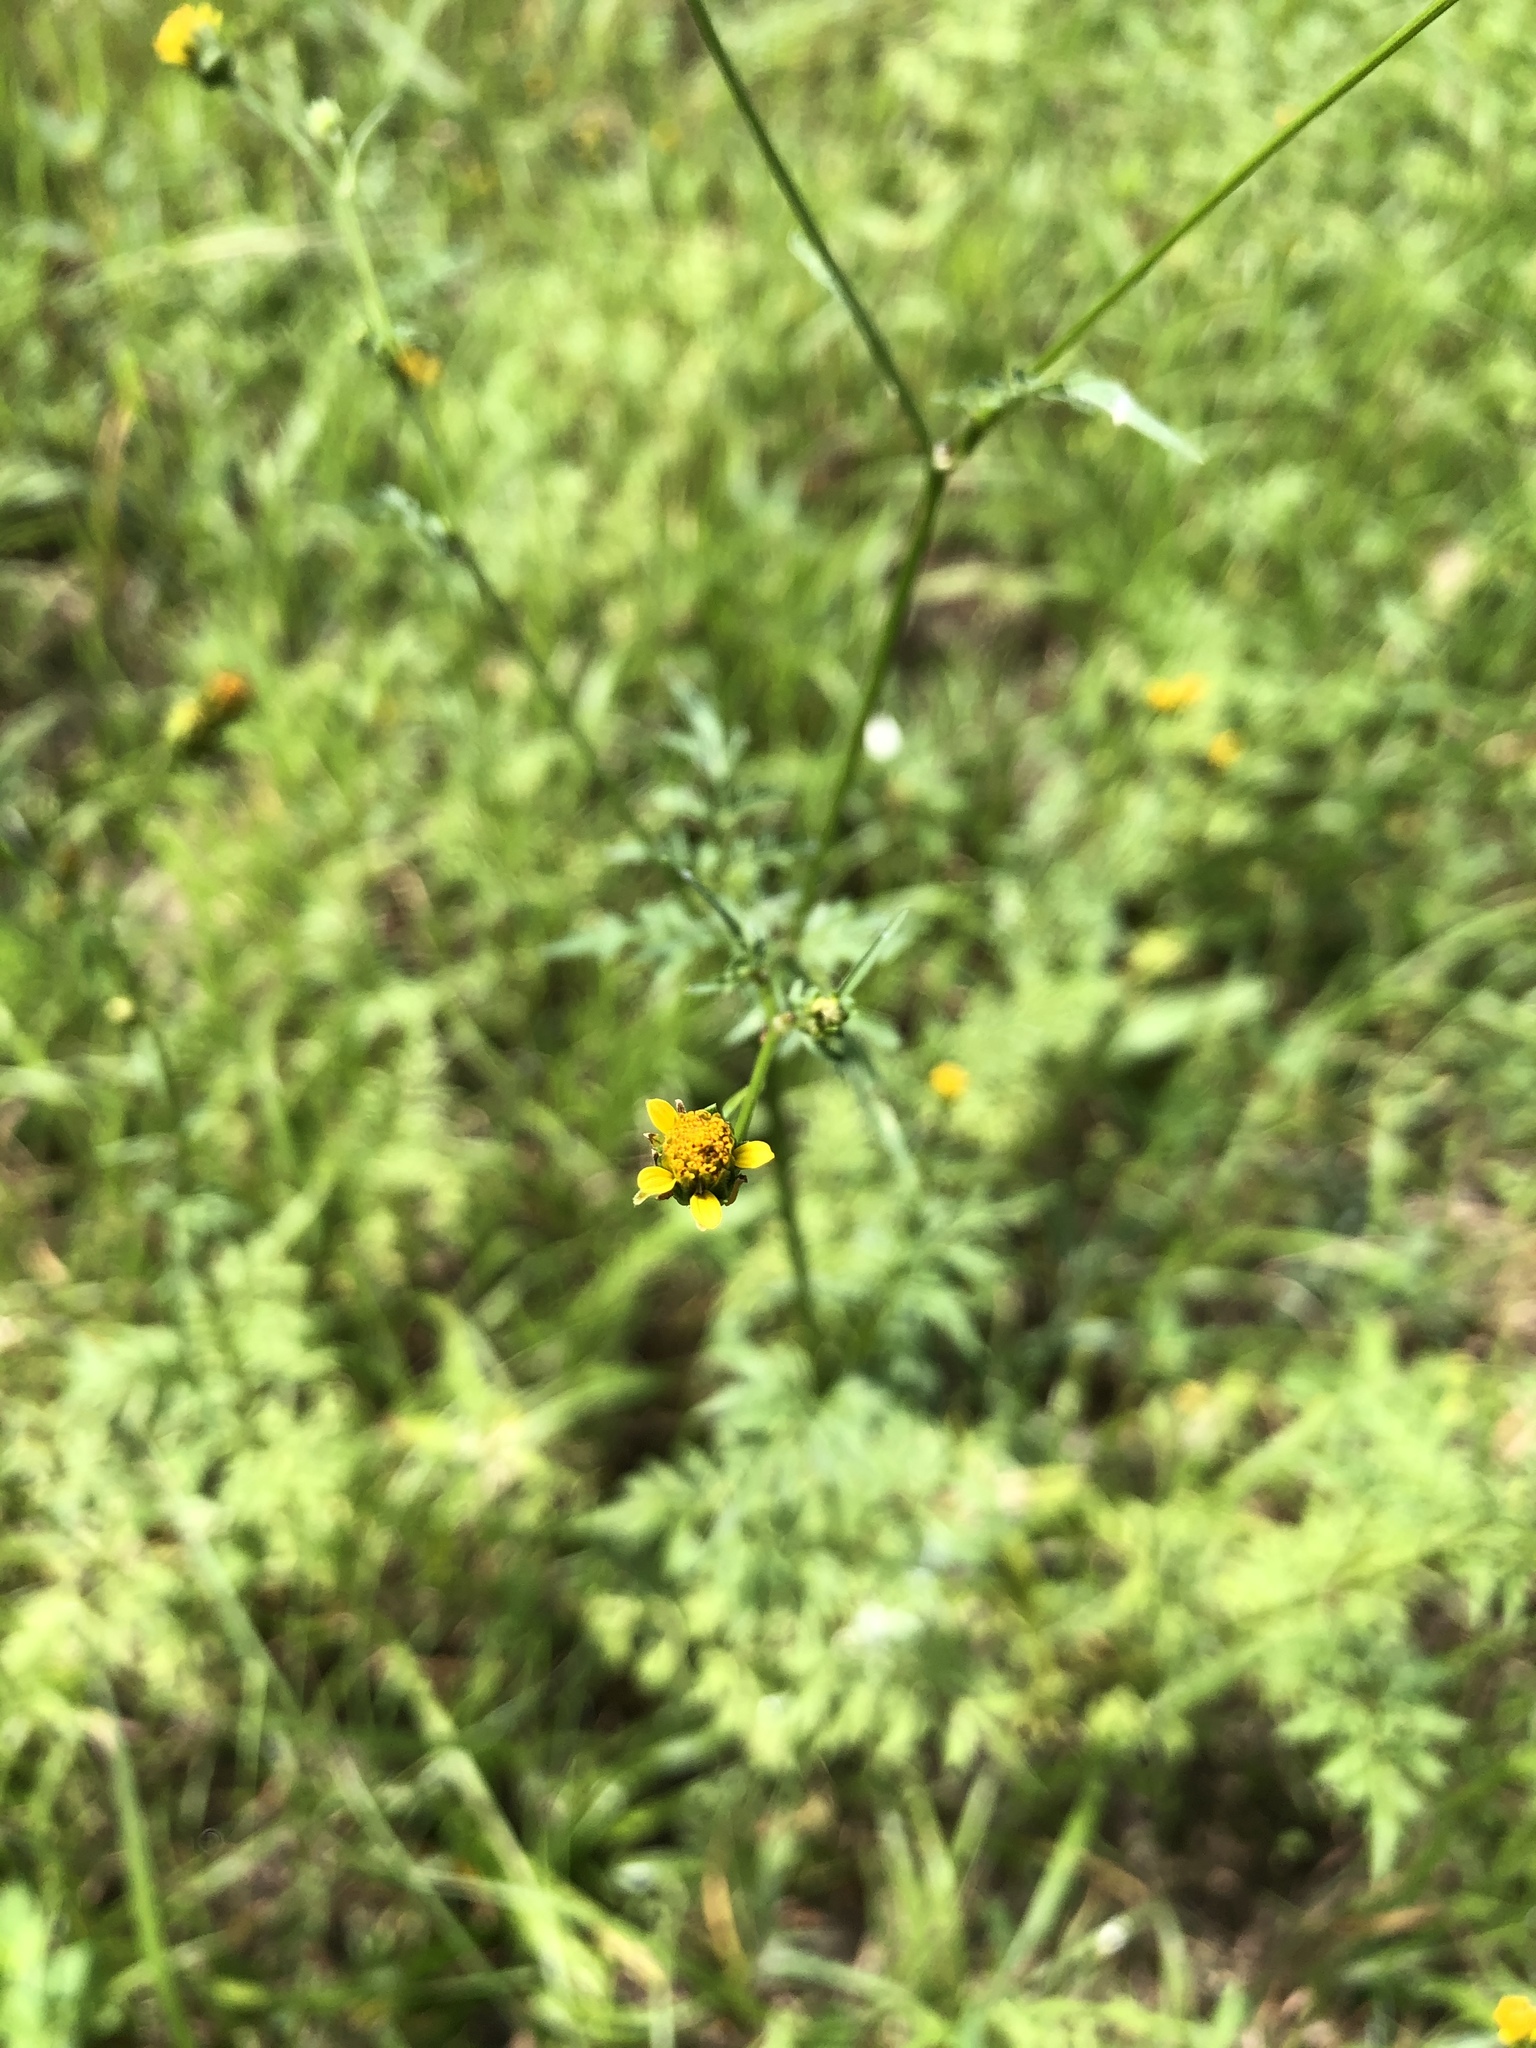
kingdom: Plantae
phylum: Tracheophyta
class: Magnoliopsida
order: Asterales
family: Asteraceae
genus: Bidens
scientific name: Bidens bipinnata
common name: Spanish-needles
